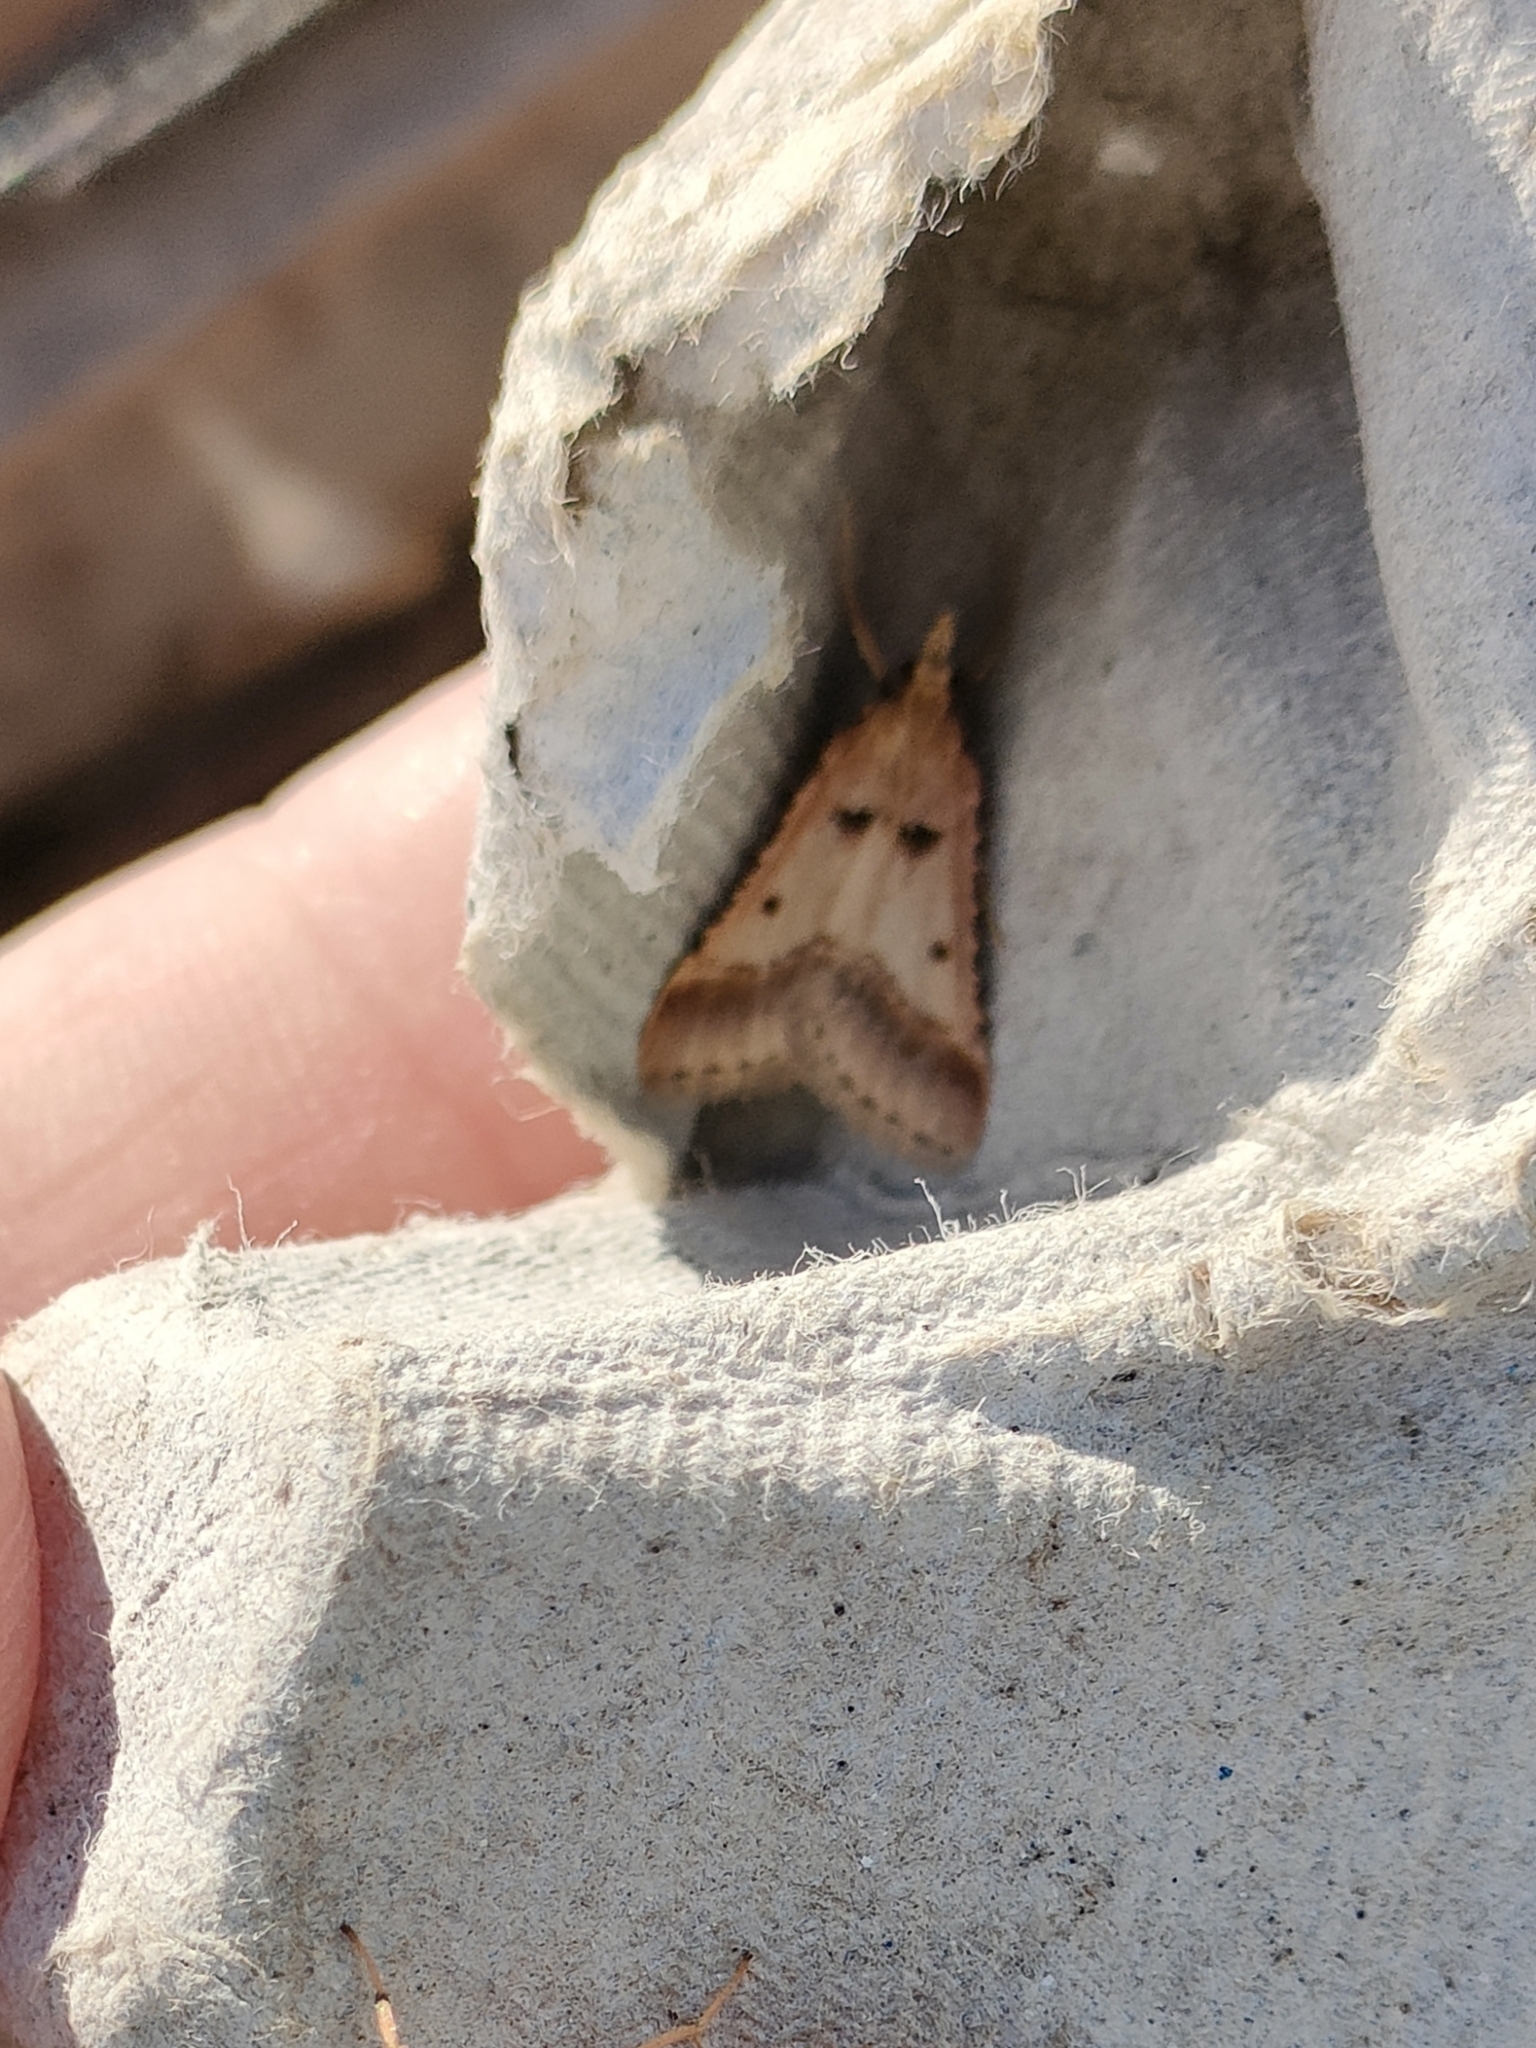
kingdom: Animalia
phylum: Arthropoda
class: Insecta
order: Lepidoptera
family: Pyralidae
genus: Stemmatophora
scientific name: Stemmatophora brunnealis
